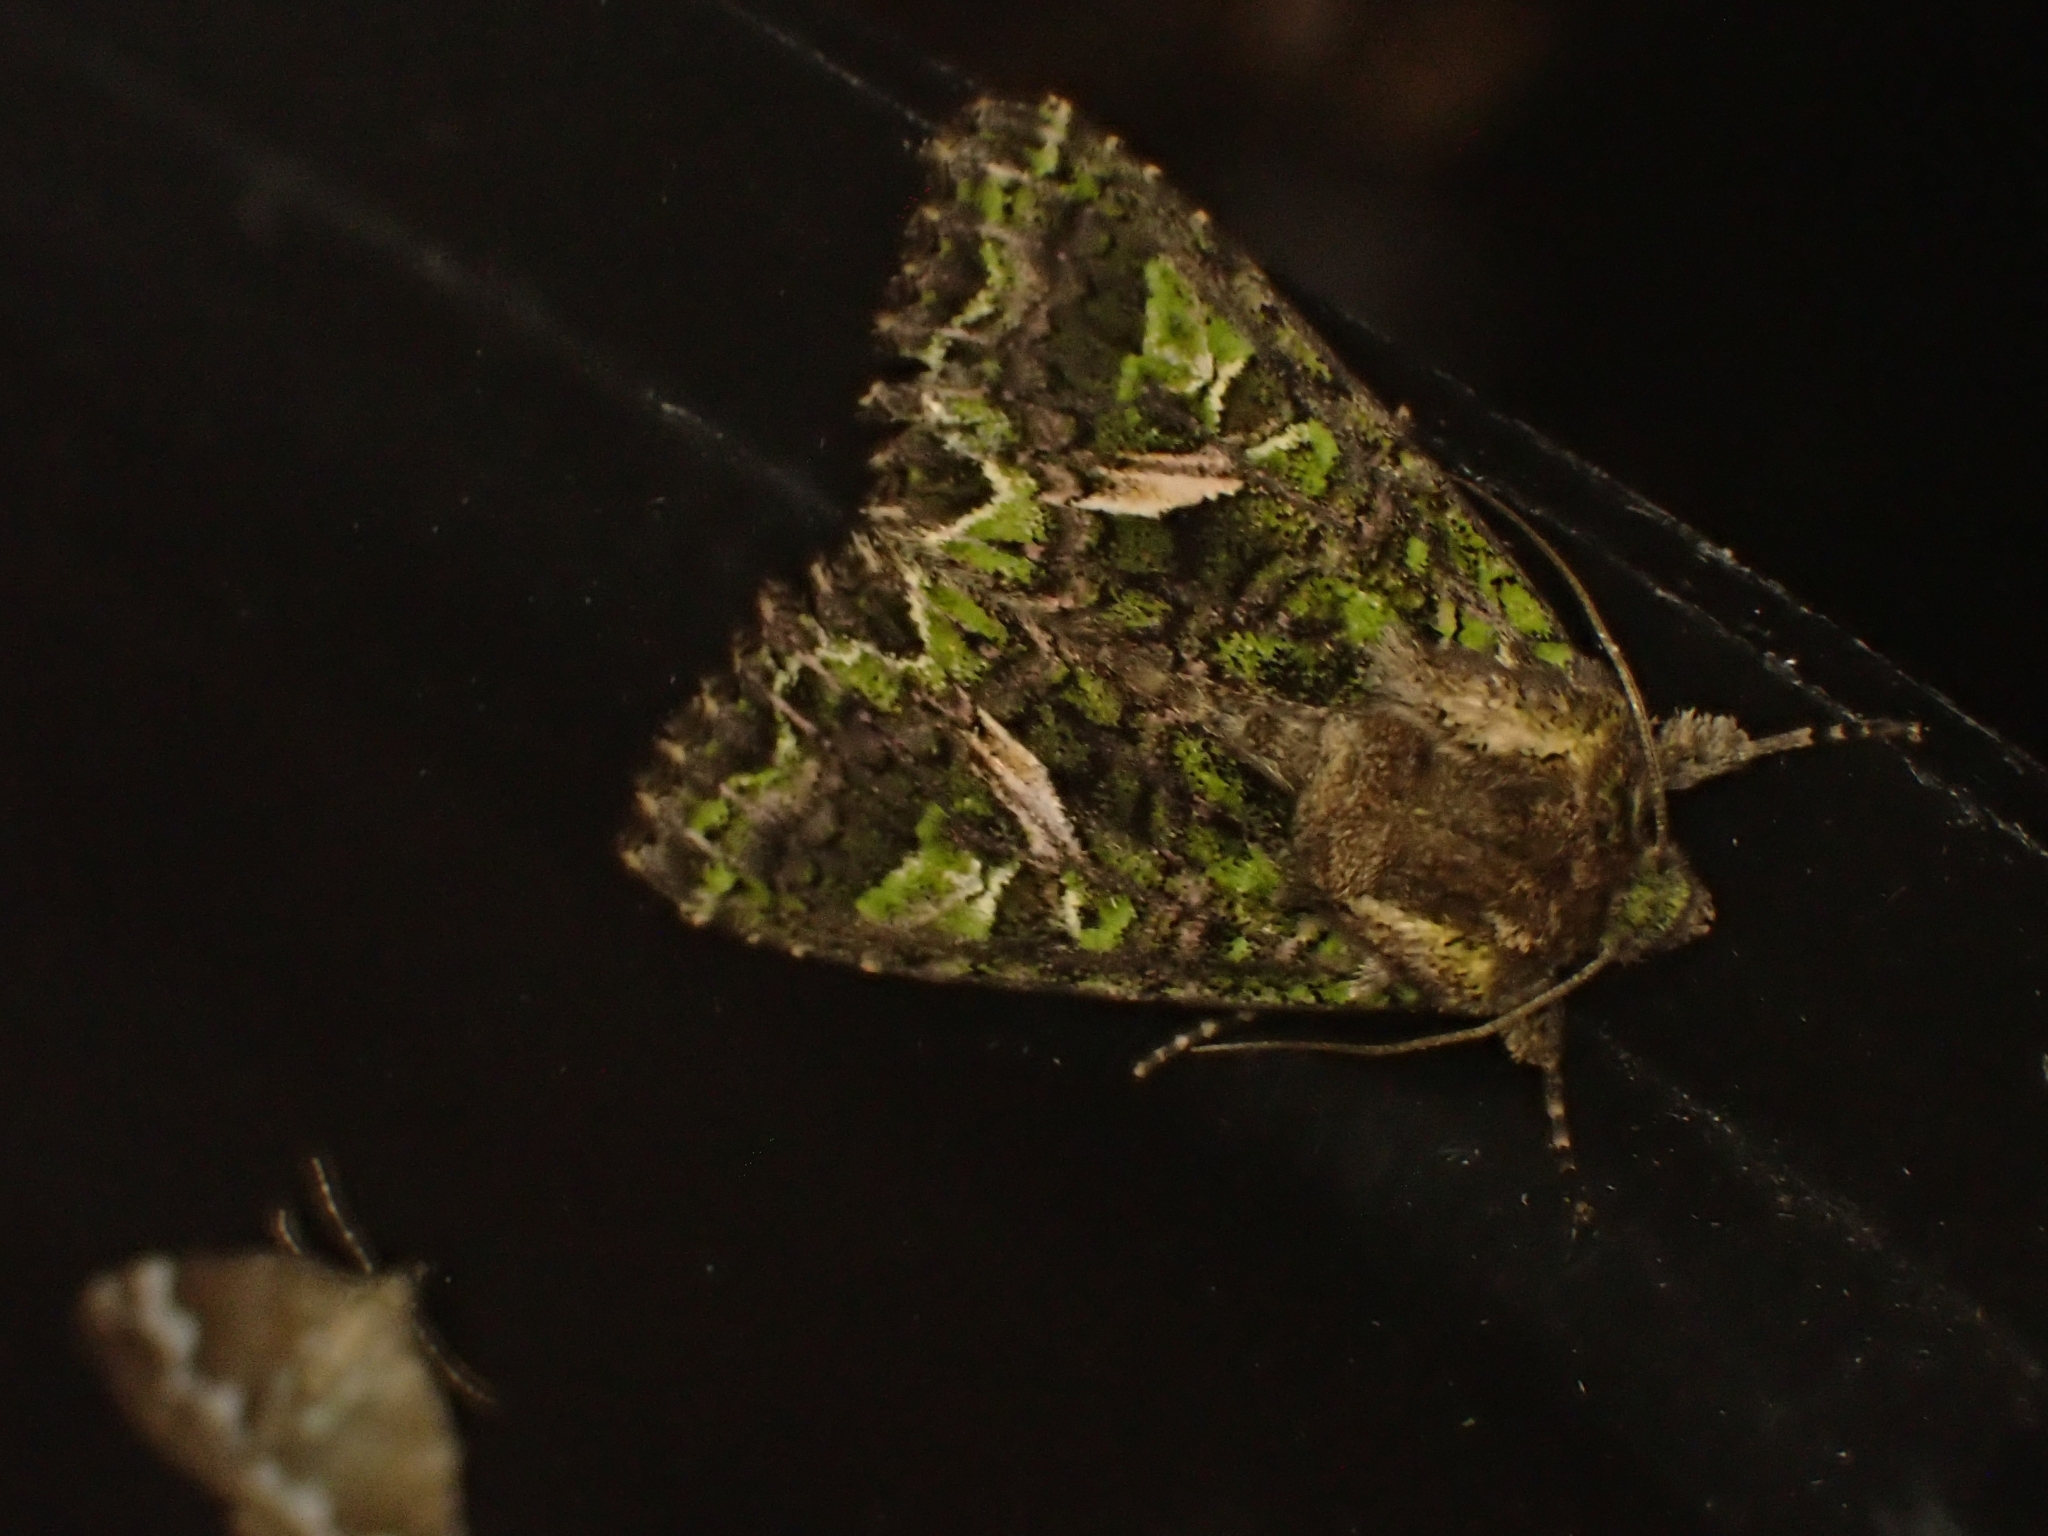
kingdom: Animalia
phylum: Arthropoda
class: Insecta
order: Lepidoptera
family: Noctuidae
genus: Trachea
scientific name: Trachea atriplicis
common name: Orache moth
